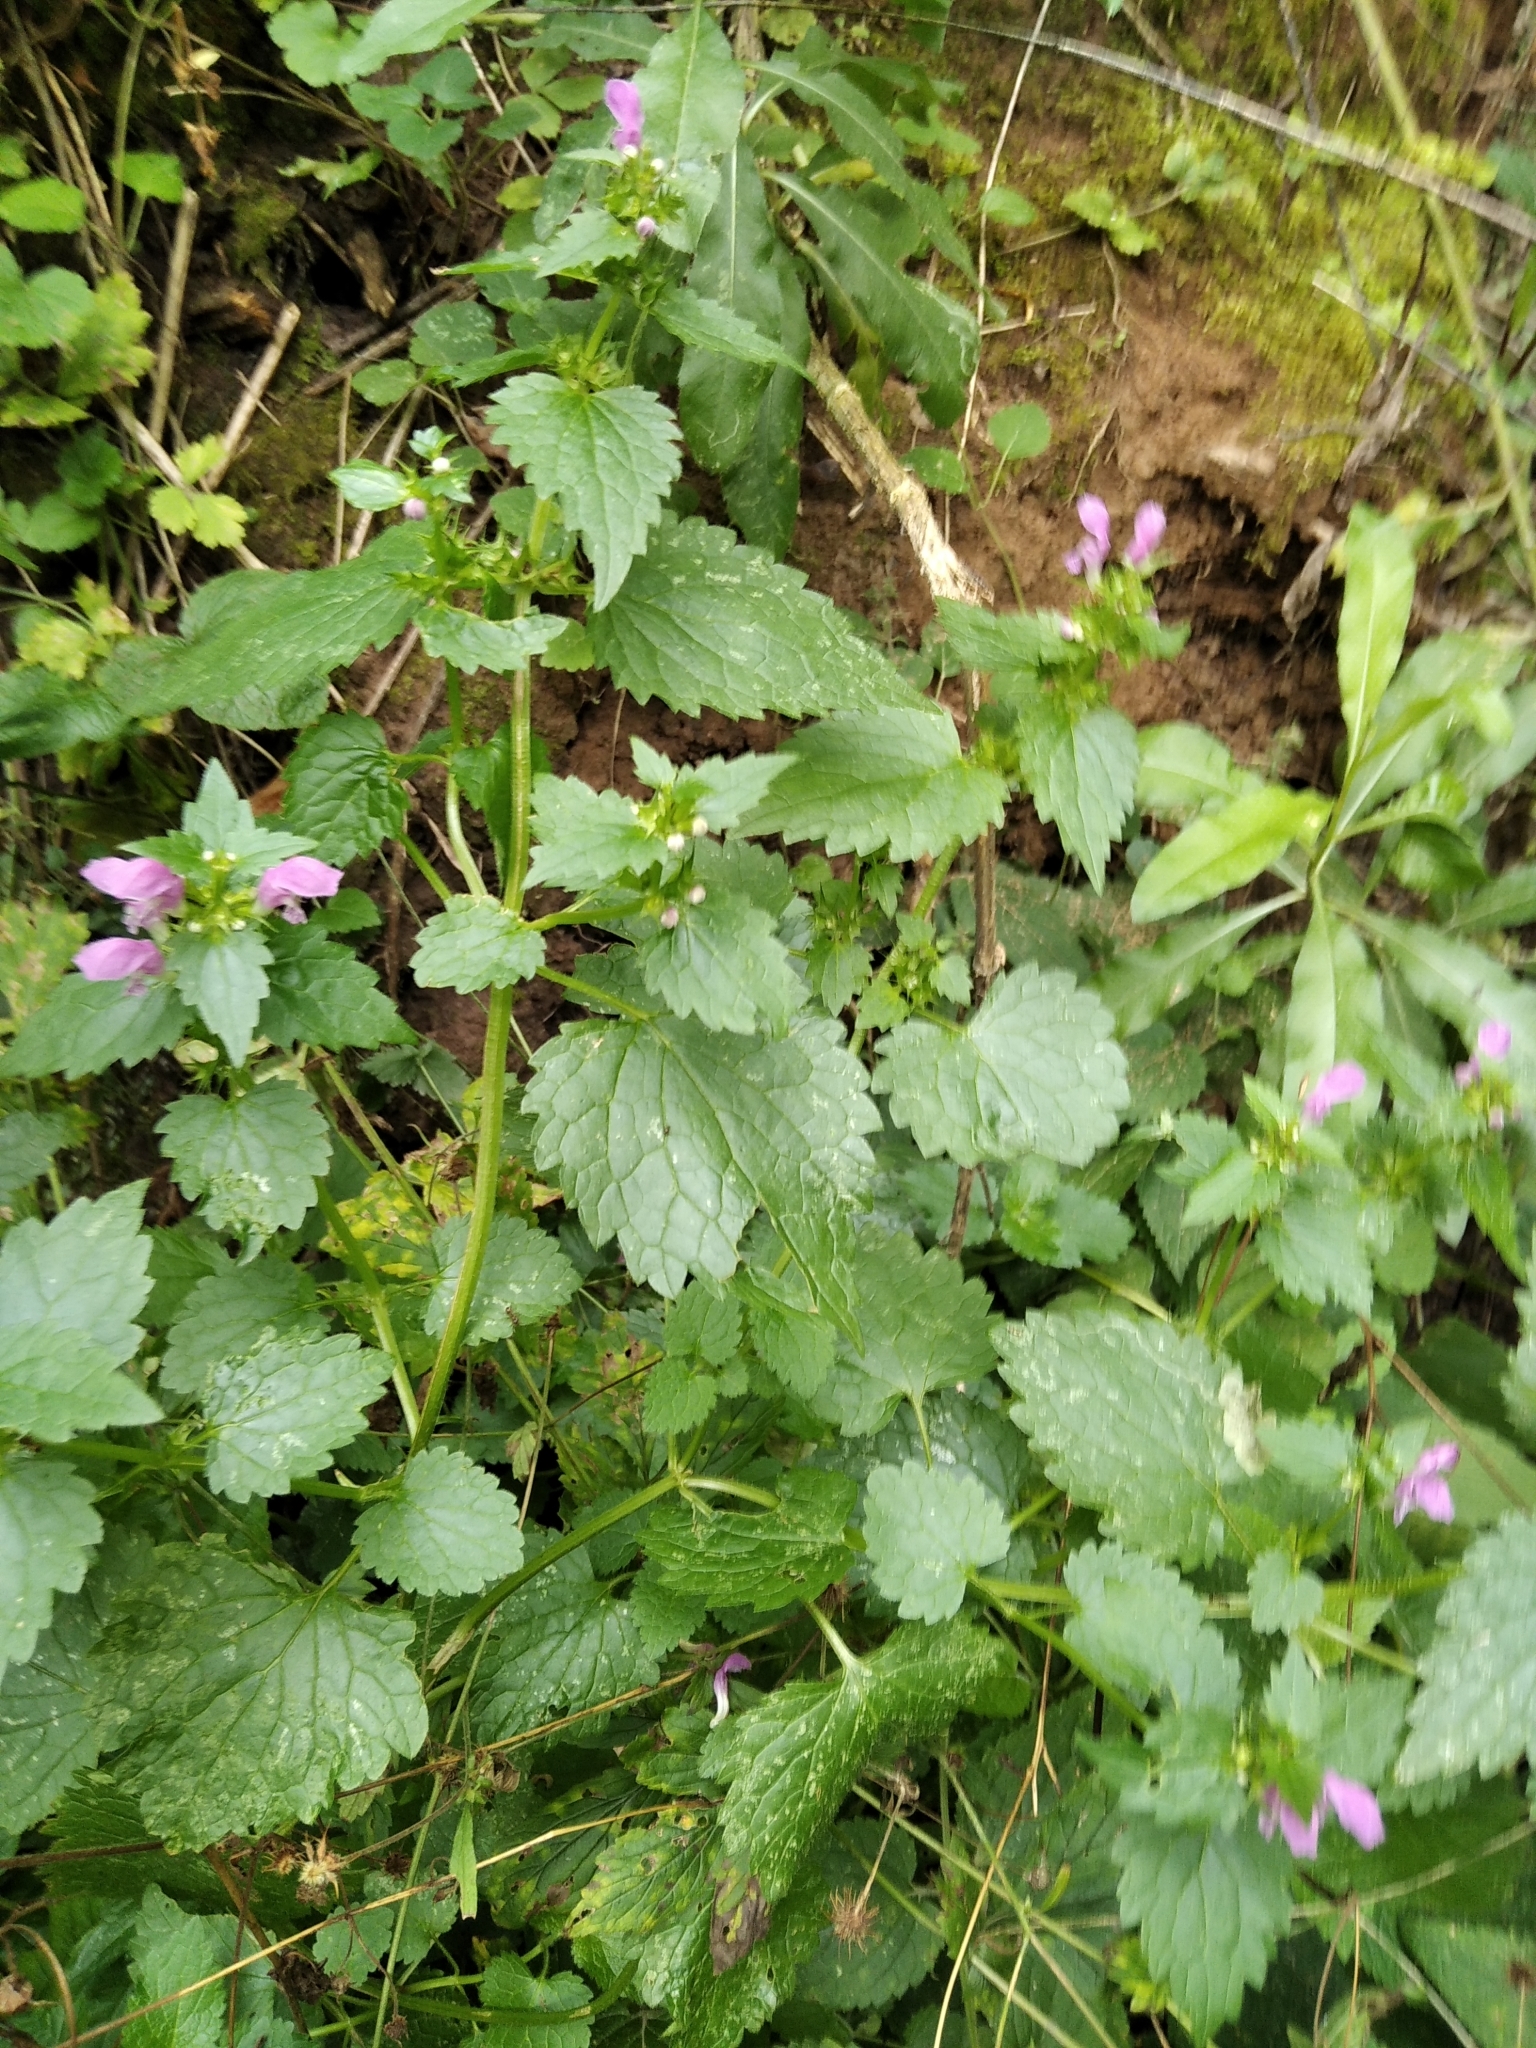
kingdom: Plantae
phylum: Tracheophyta
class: Magnoliopsida
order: Lamiales
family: Lamiaceae
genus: Lamium
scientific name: Lamium maculatum
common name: Spotted dead-nettle
